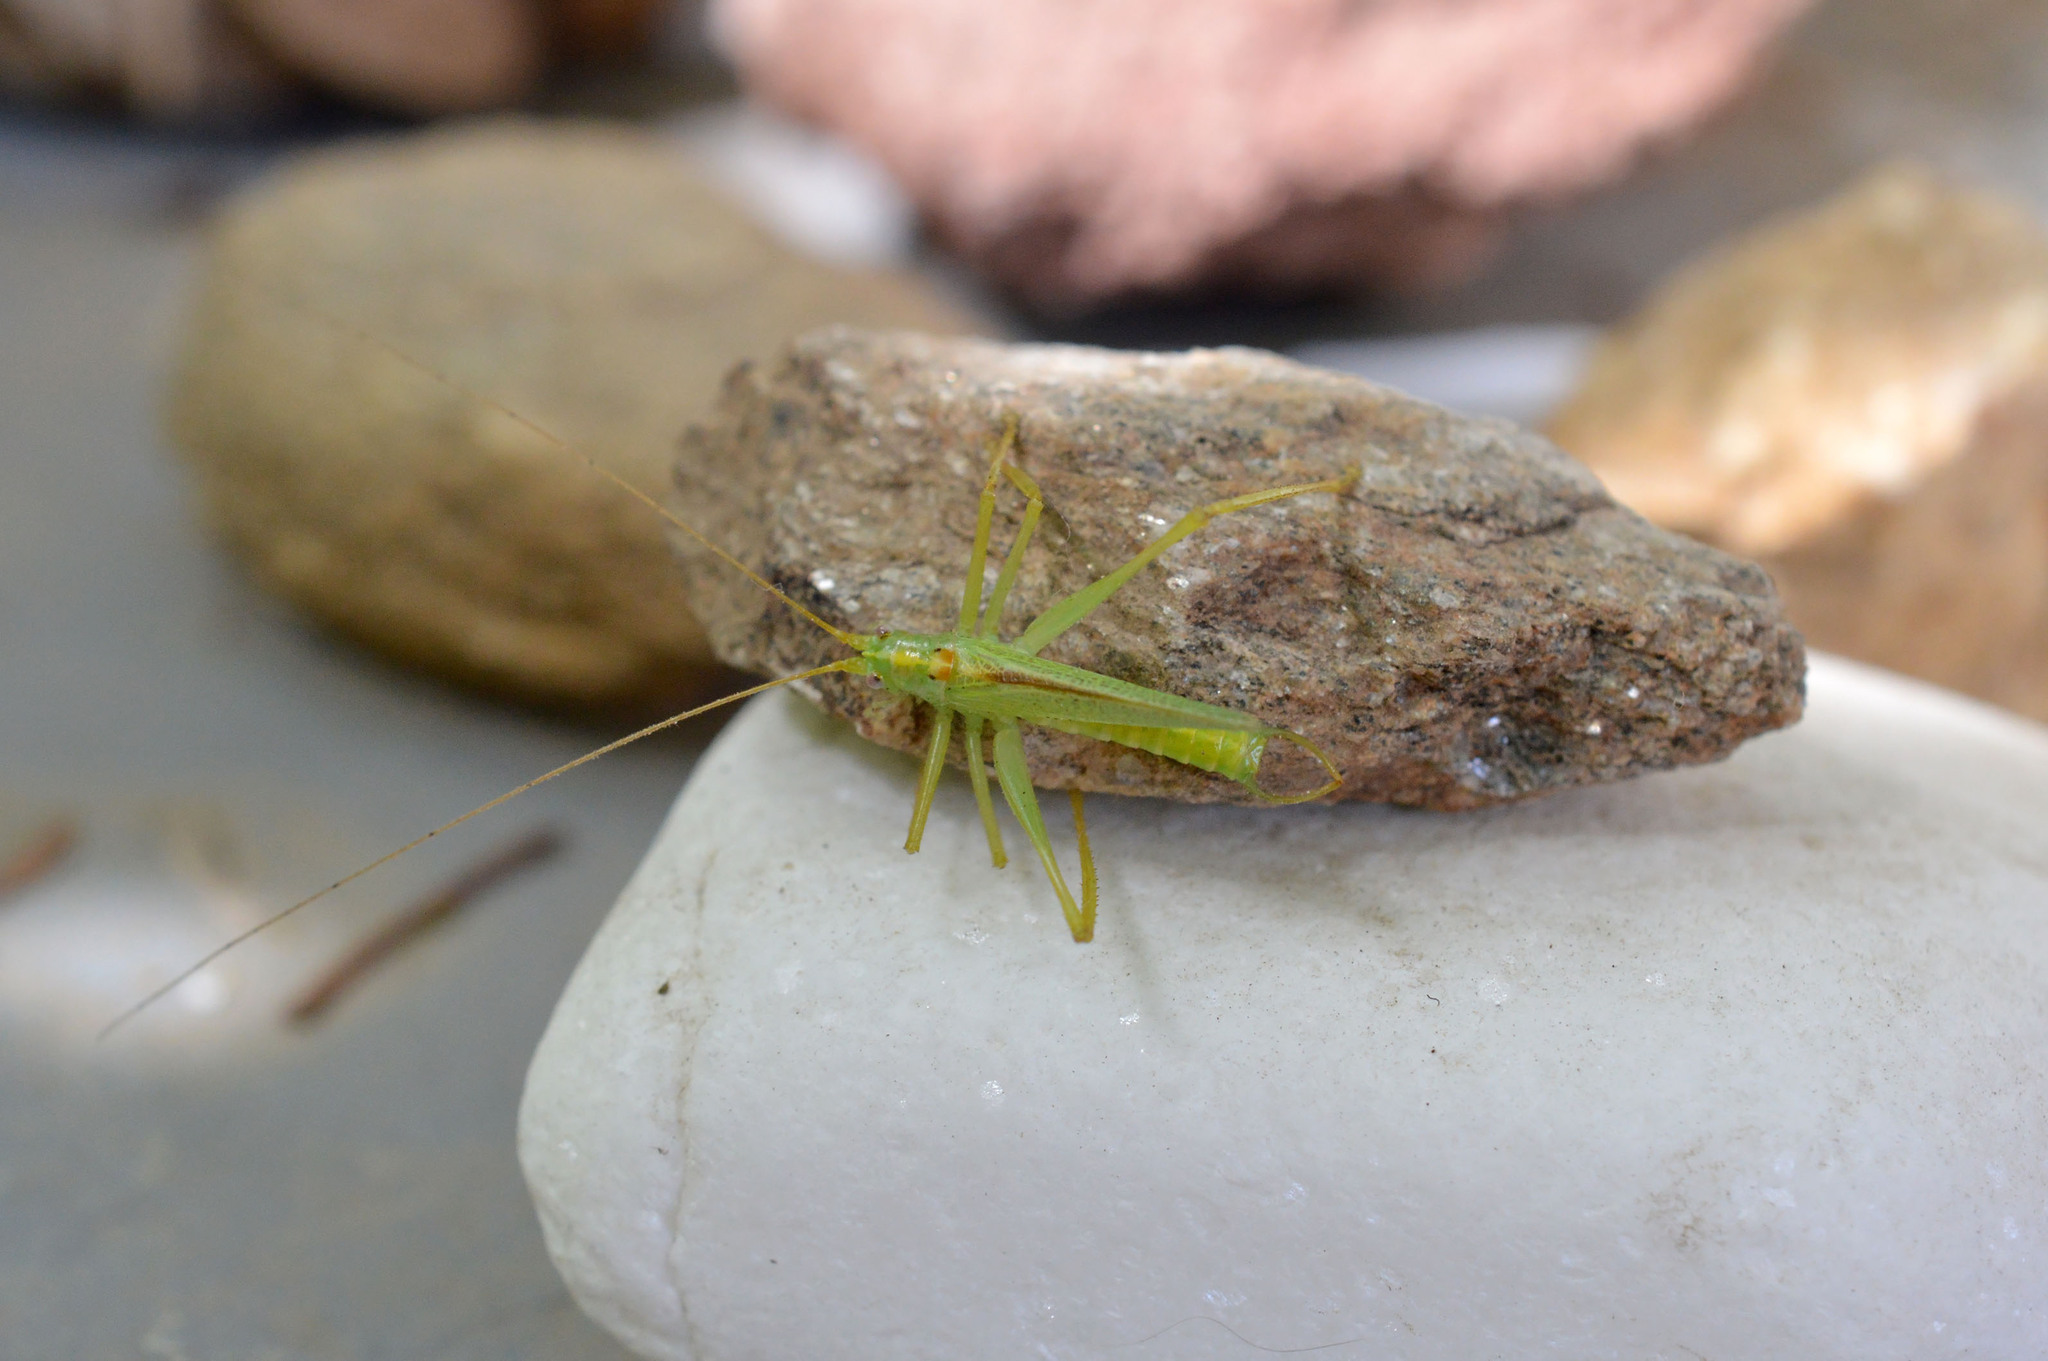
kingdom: Animalia
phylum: Arthropoda
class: Insecta
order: Orthoptera
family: Tettigoniidae
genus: Meconema
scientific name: Meconema thalassinum
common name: Oak bush-cricket
